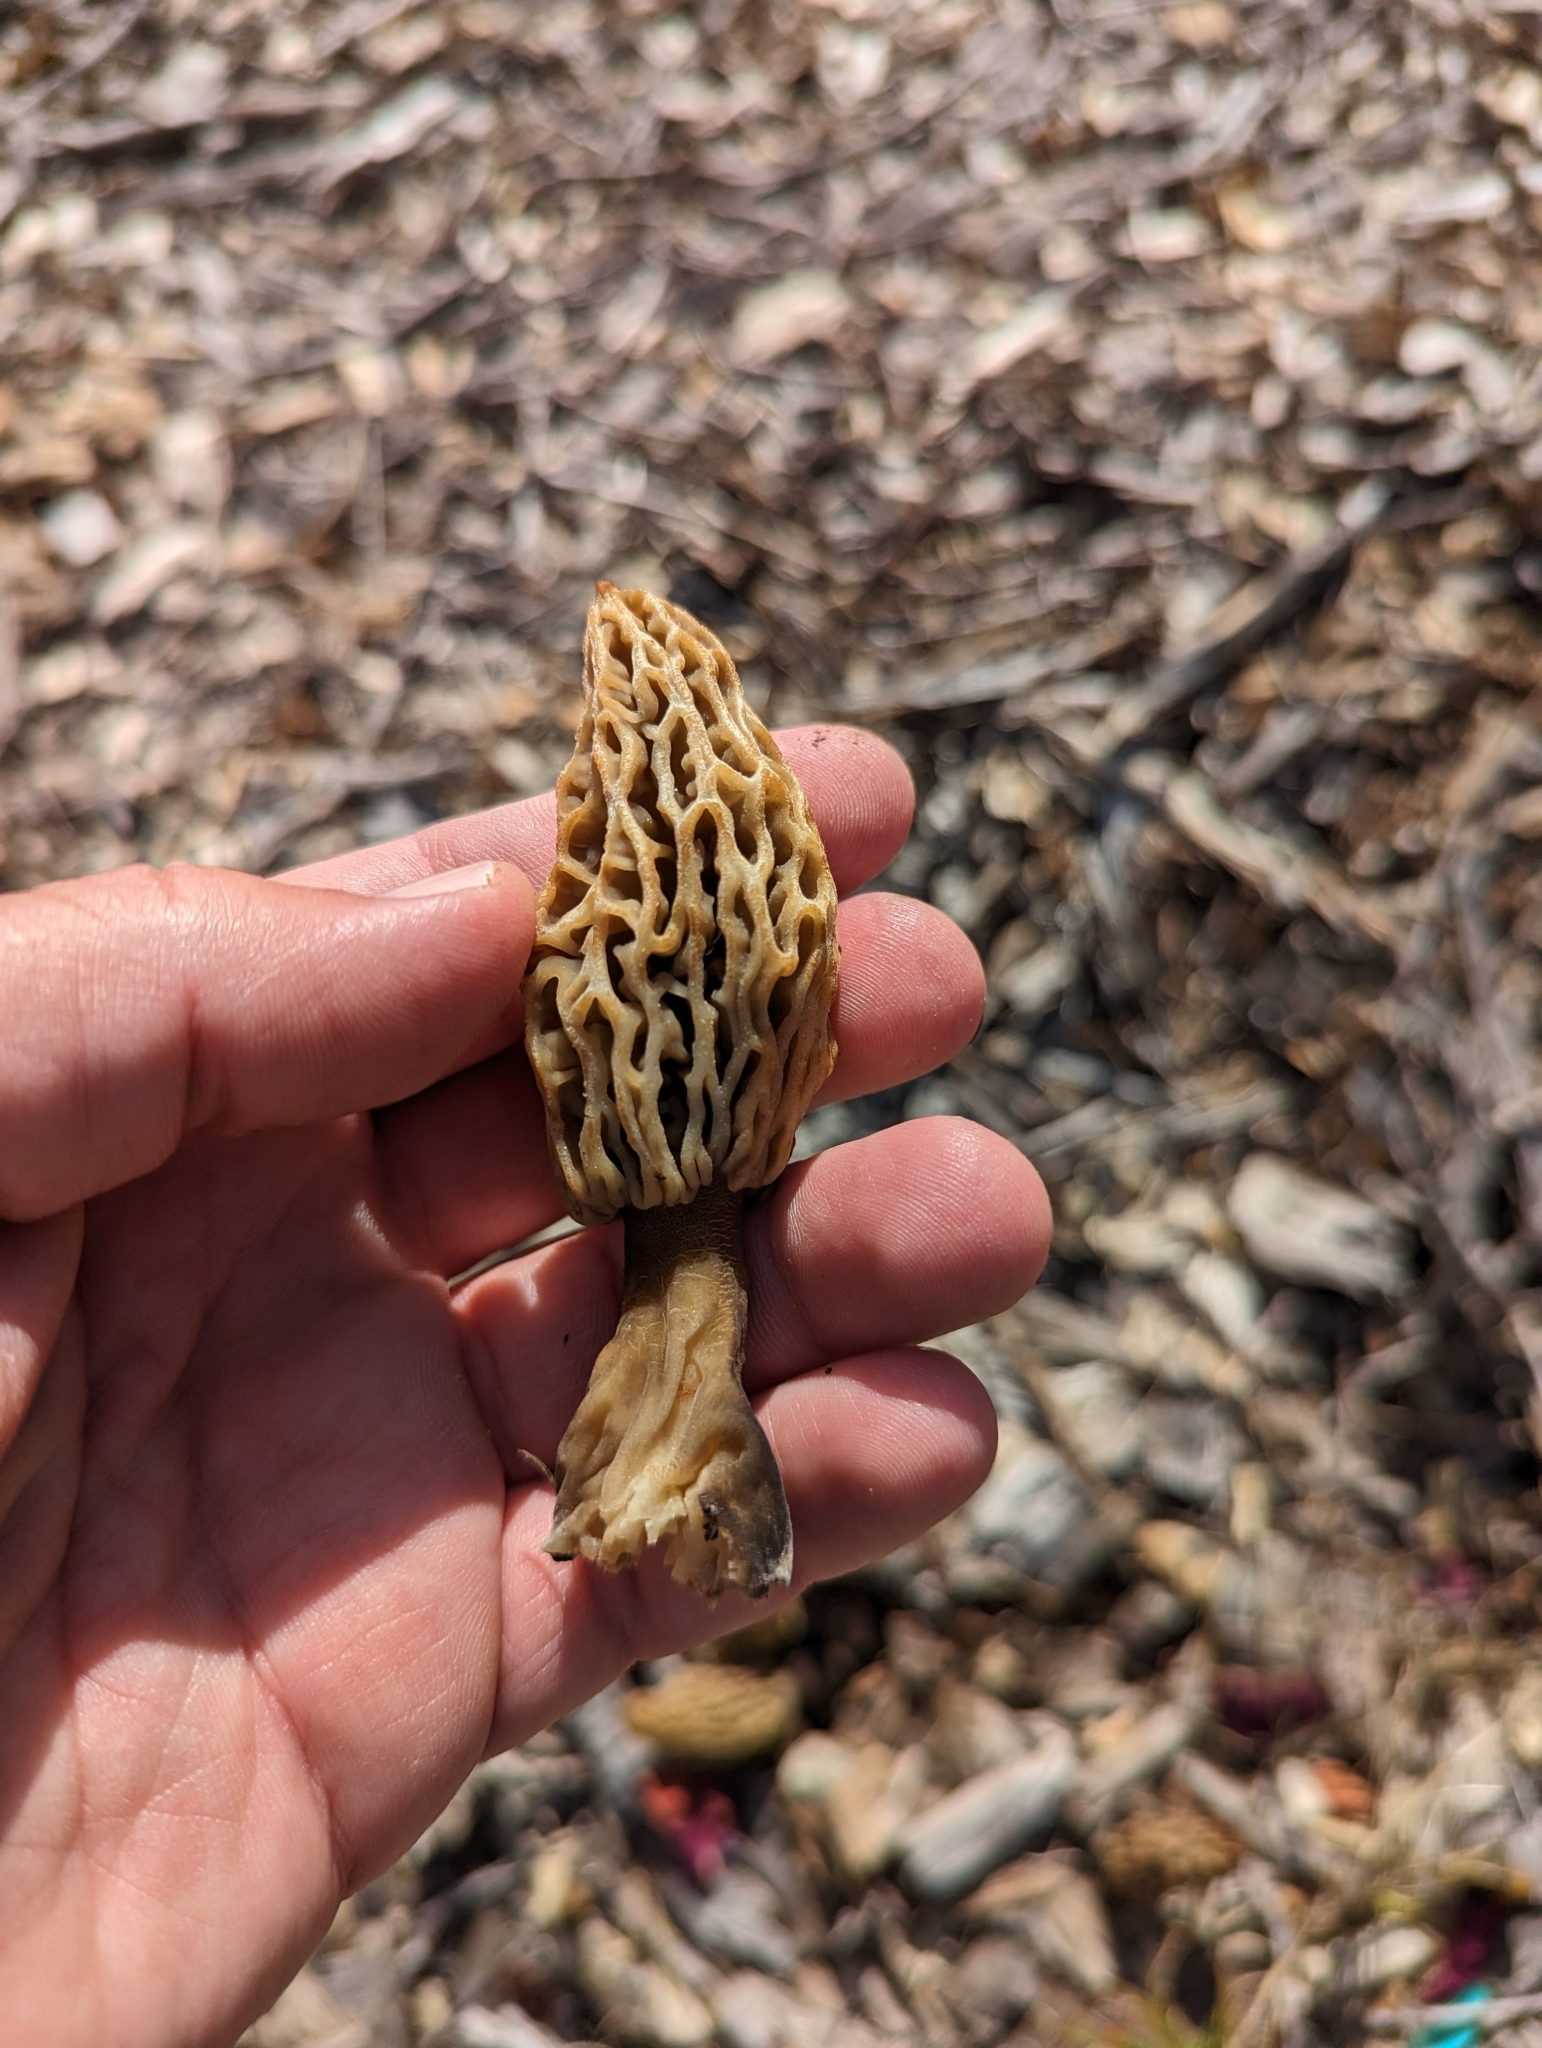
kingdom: Fungi
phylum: Ascomycota
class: Pezizomycetes
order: Pezizales
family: Morchellaceae
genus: Morchella
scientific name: Morchella rufobrunnea
